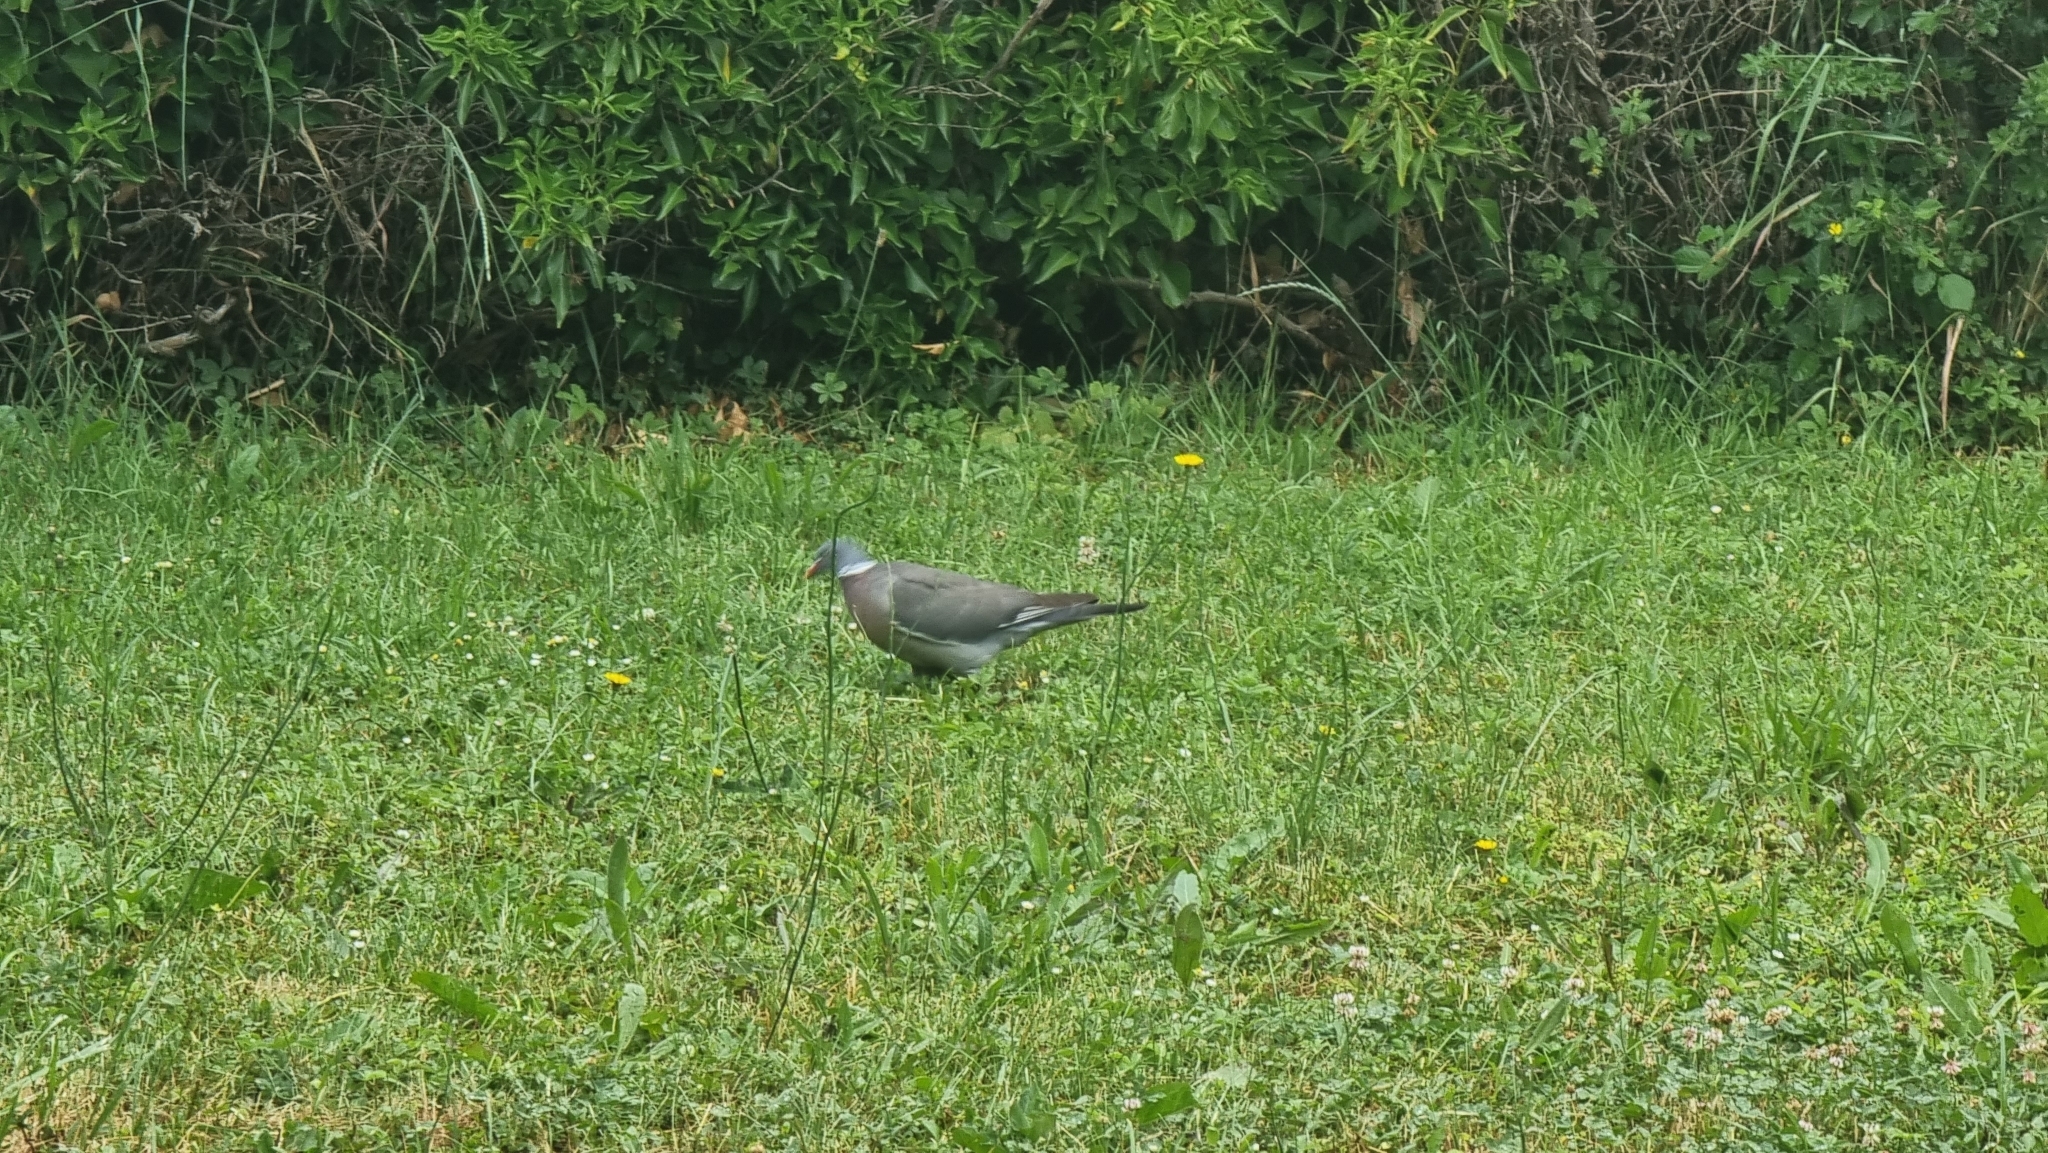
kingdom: Animalia
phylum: Chordata
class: Aves
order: Columbiformes
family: Columbidae
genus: Columba
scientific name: Columba palumbus
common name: Common wood pigeon
